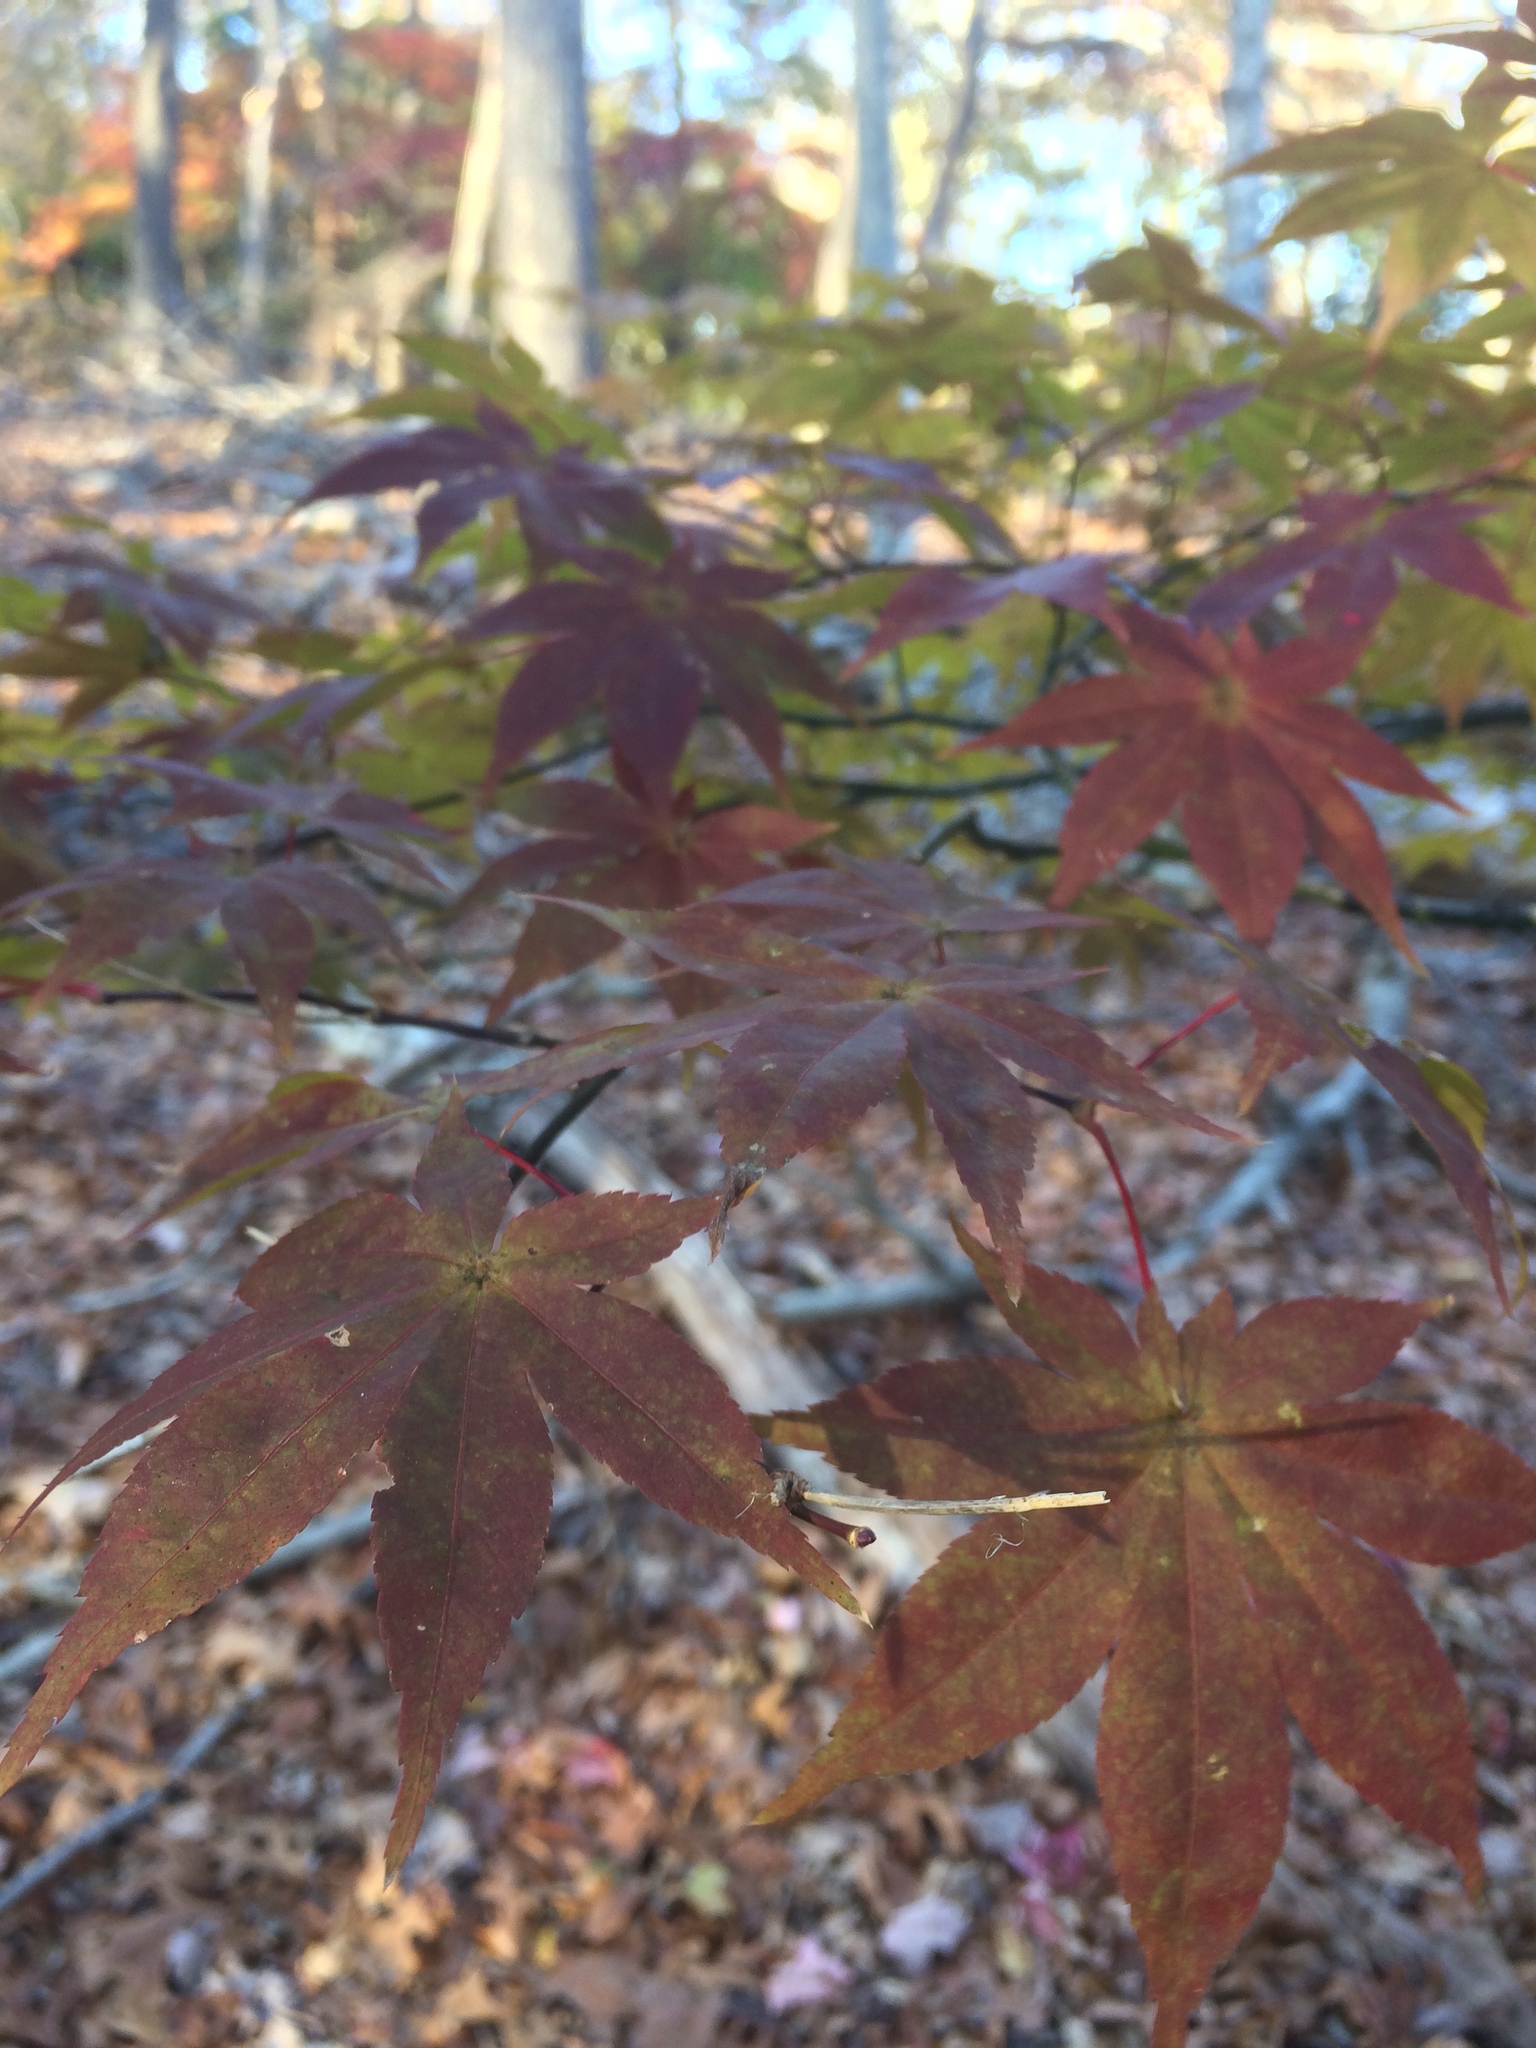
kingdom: Plantae
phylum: Tracheophyta
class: Magnoliopsida
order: Sapindales
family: Sapindaceae
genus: Acer
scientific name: Acer palmatum
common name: Japanese maple
